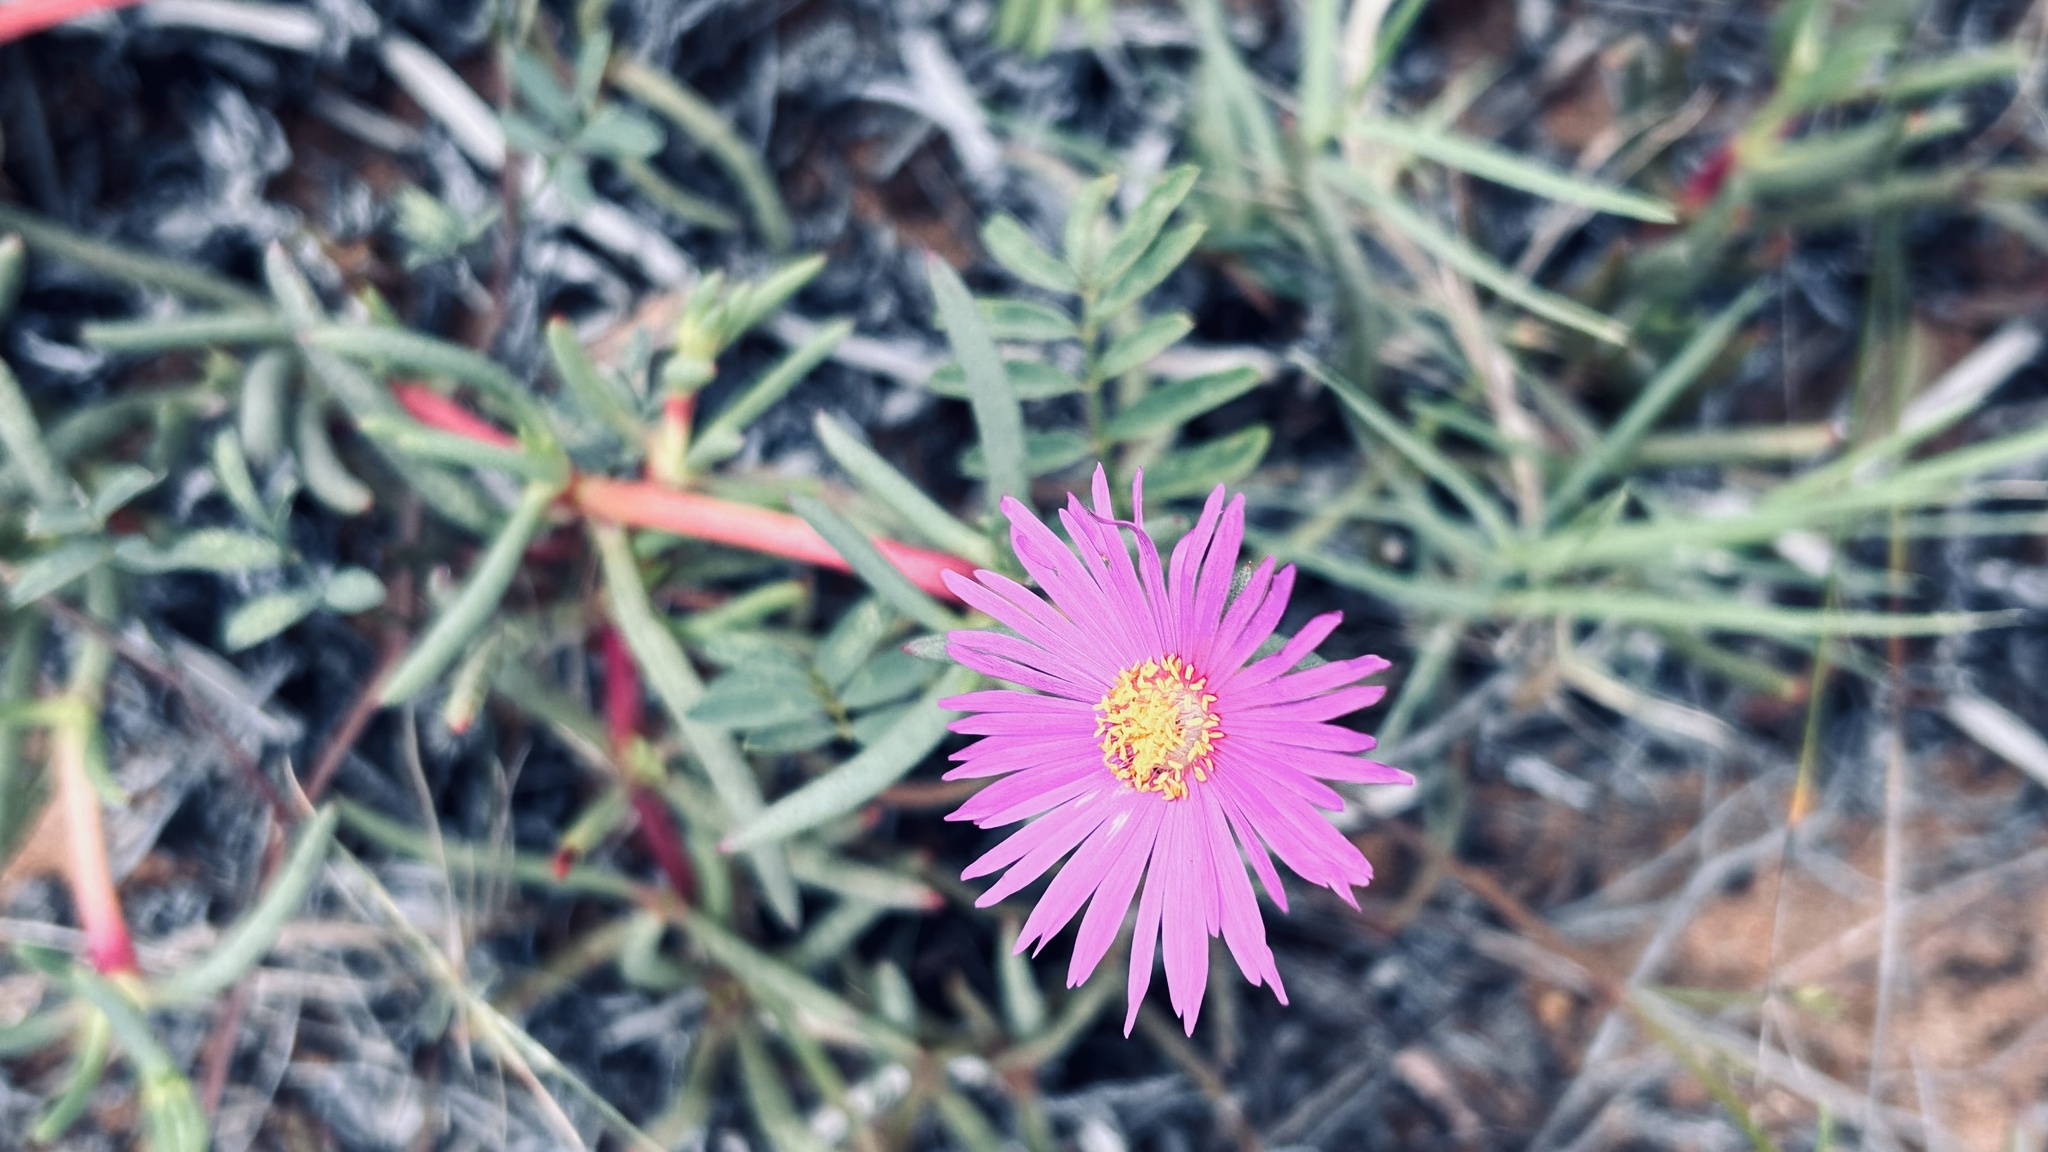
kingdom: Plantae
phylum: Tracheophyta
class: Magnoliopsida
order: Caryophyllales
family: Aizoaceae
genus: Jordaaniella
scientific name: Jordaaniella dubia
